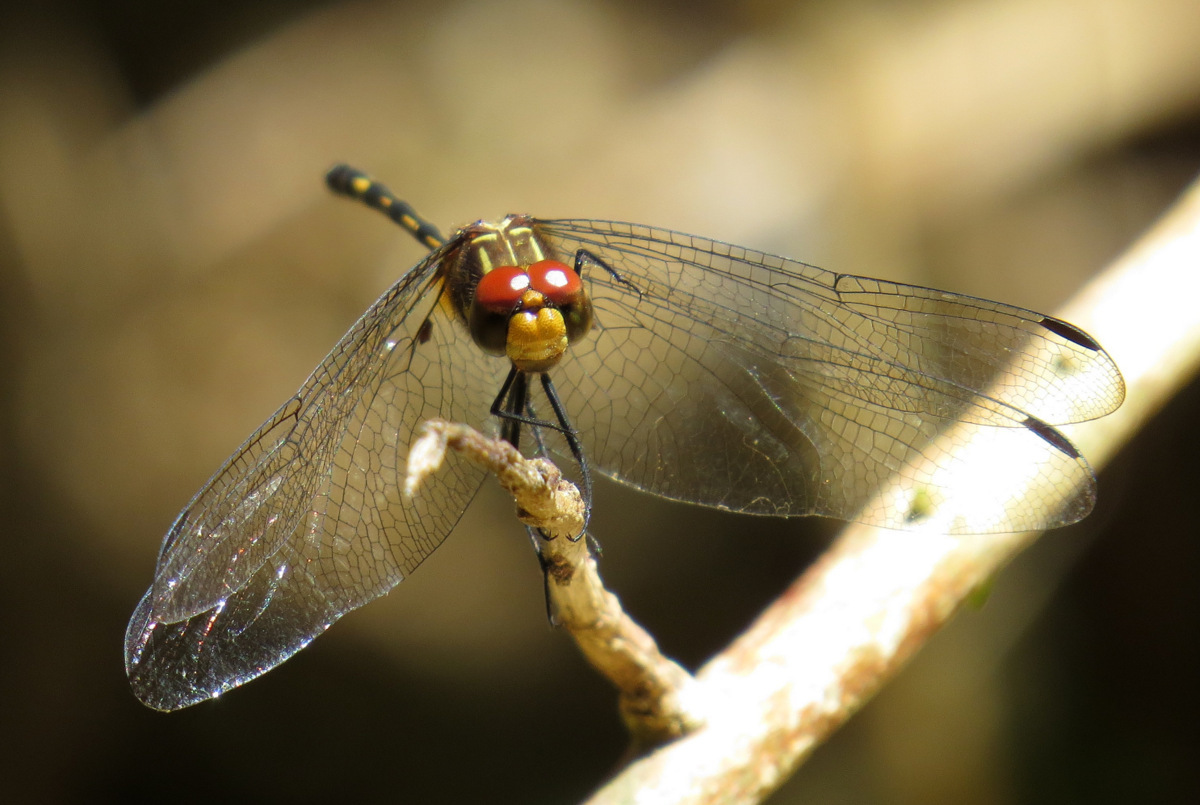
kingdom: Animalia
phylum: Arthropoda
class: Insecta
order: Odonata
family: Libellulidae
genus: Dythemis
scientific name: Dythemis sterilis
